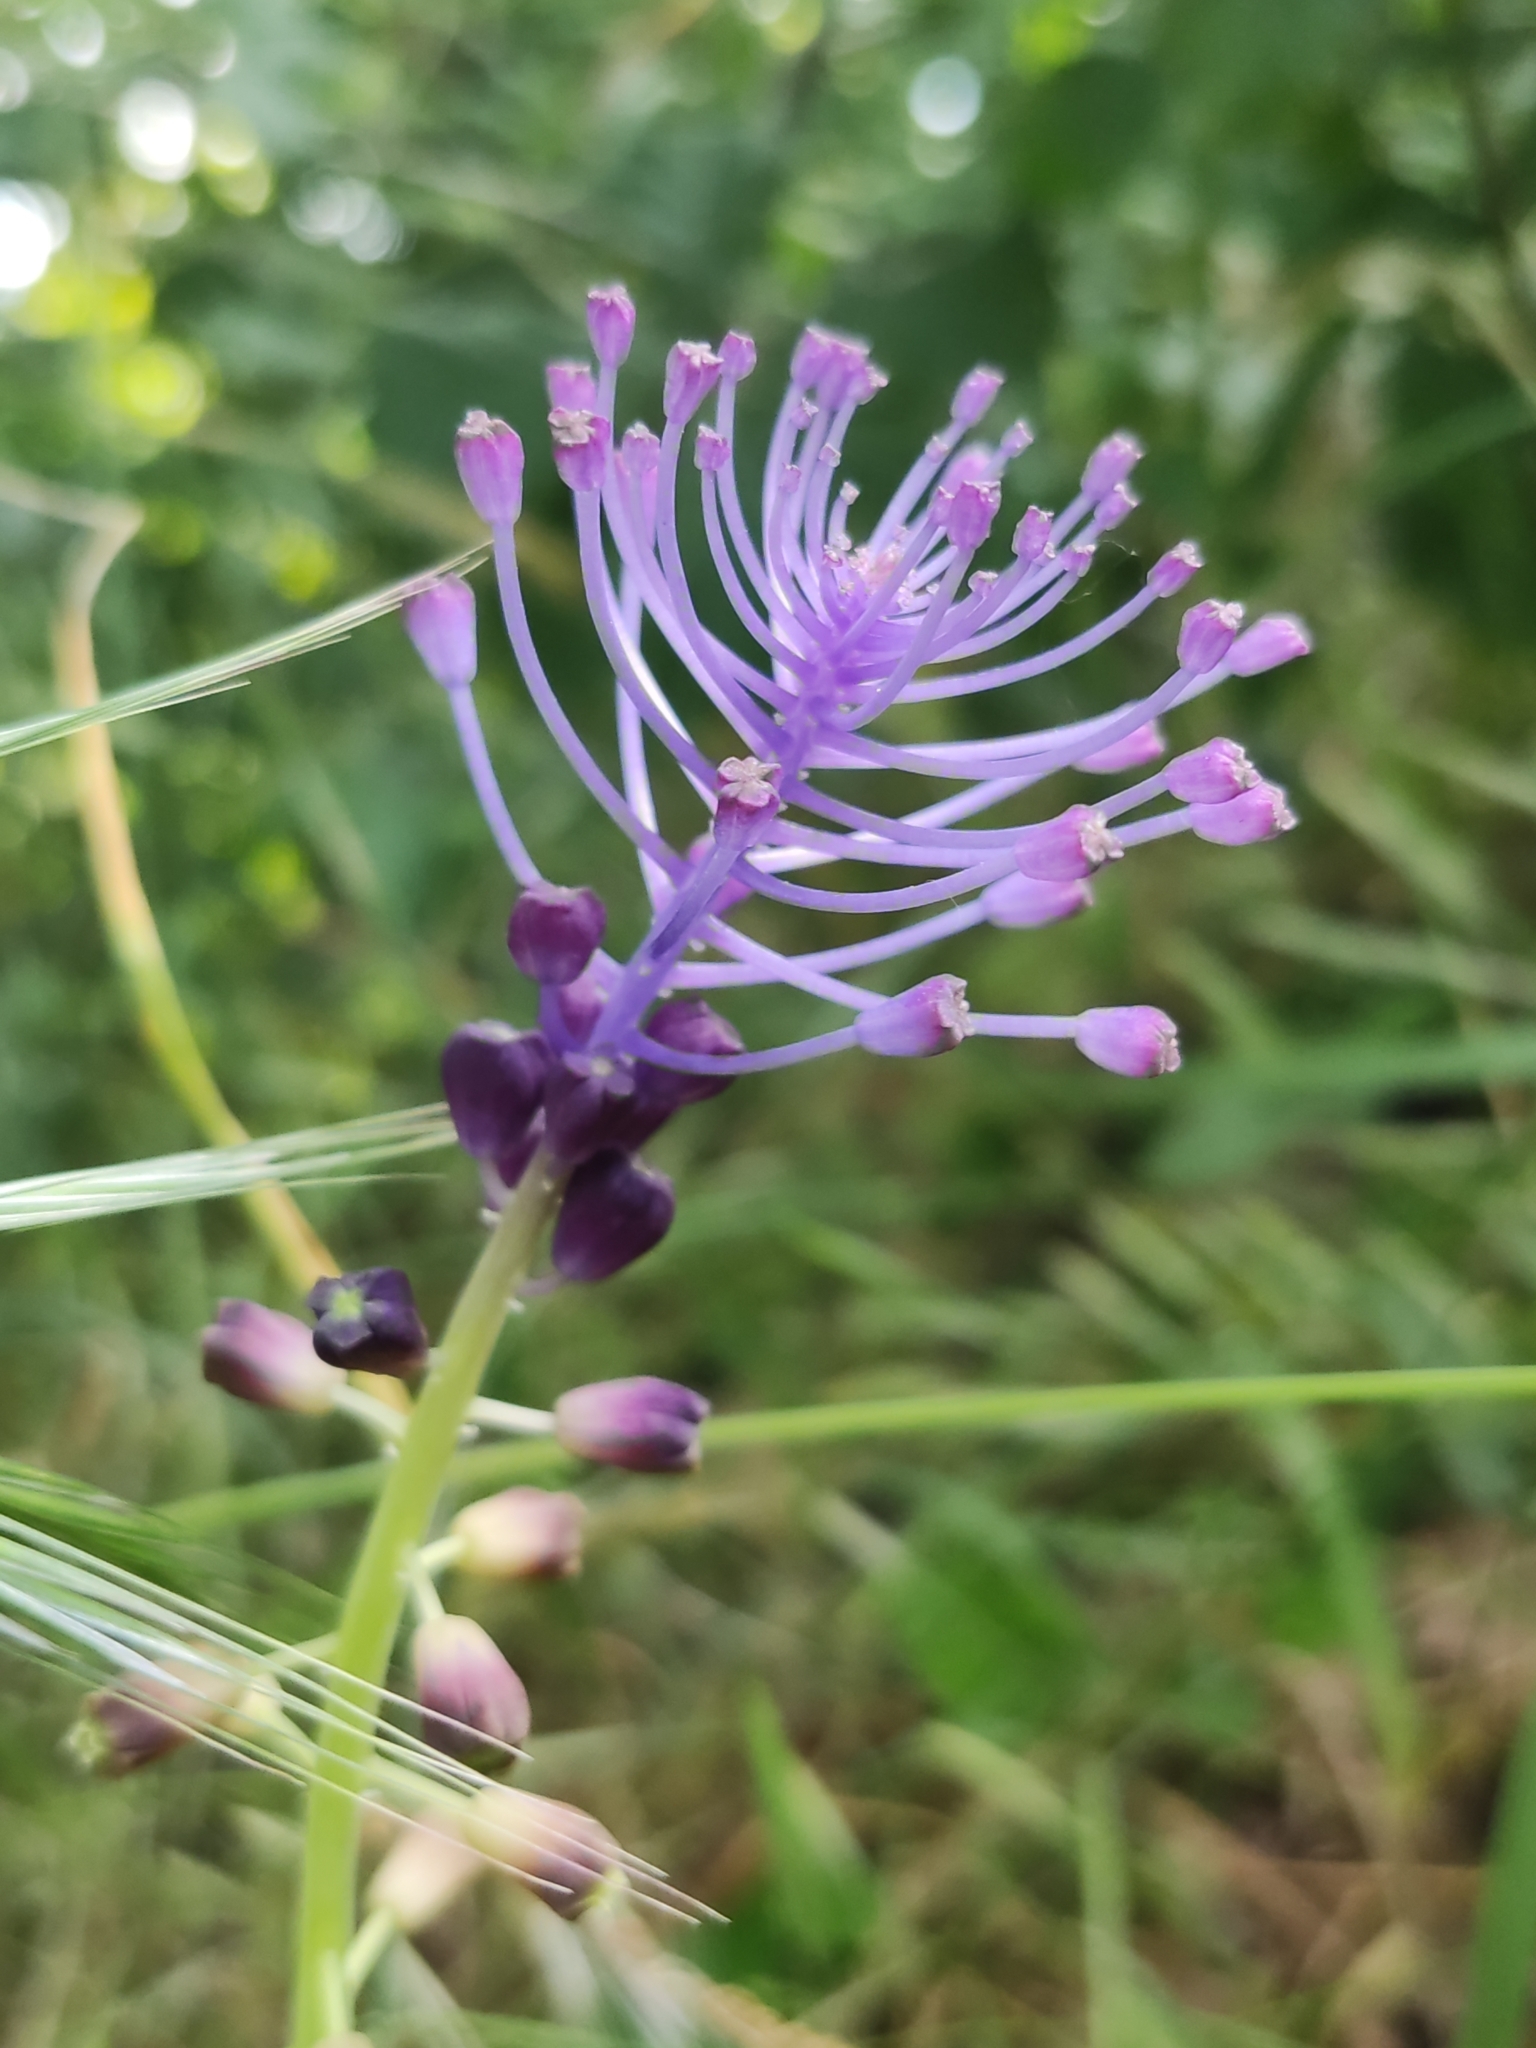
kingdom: Plantae
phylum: Tracheophyta
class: Liliopsida
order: Asparagales
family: Asparagaceae
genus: Muscari
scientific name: Muscari comosum
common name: Tassel hyacinth
